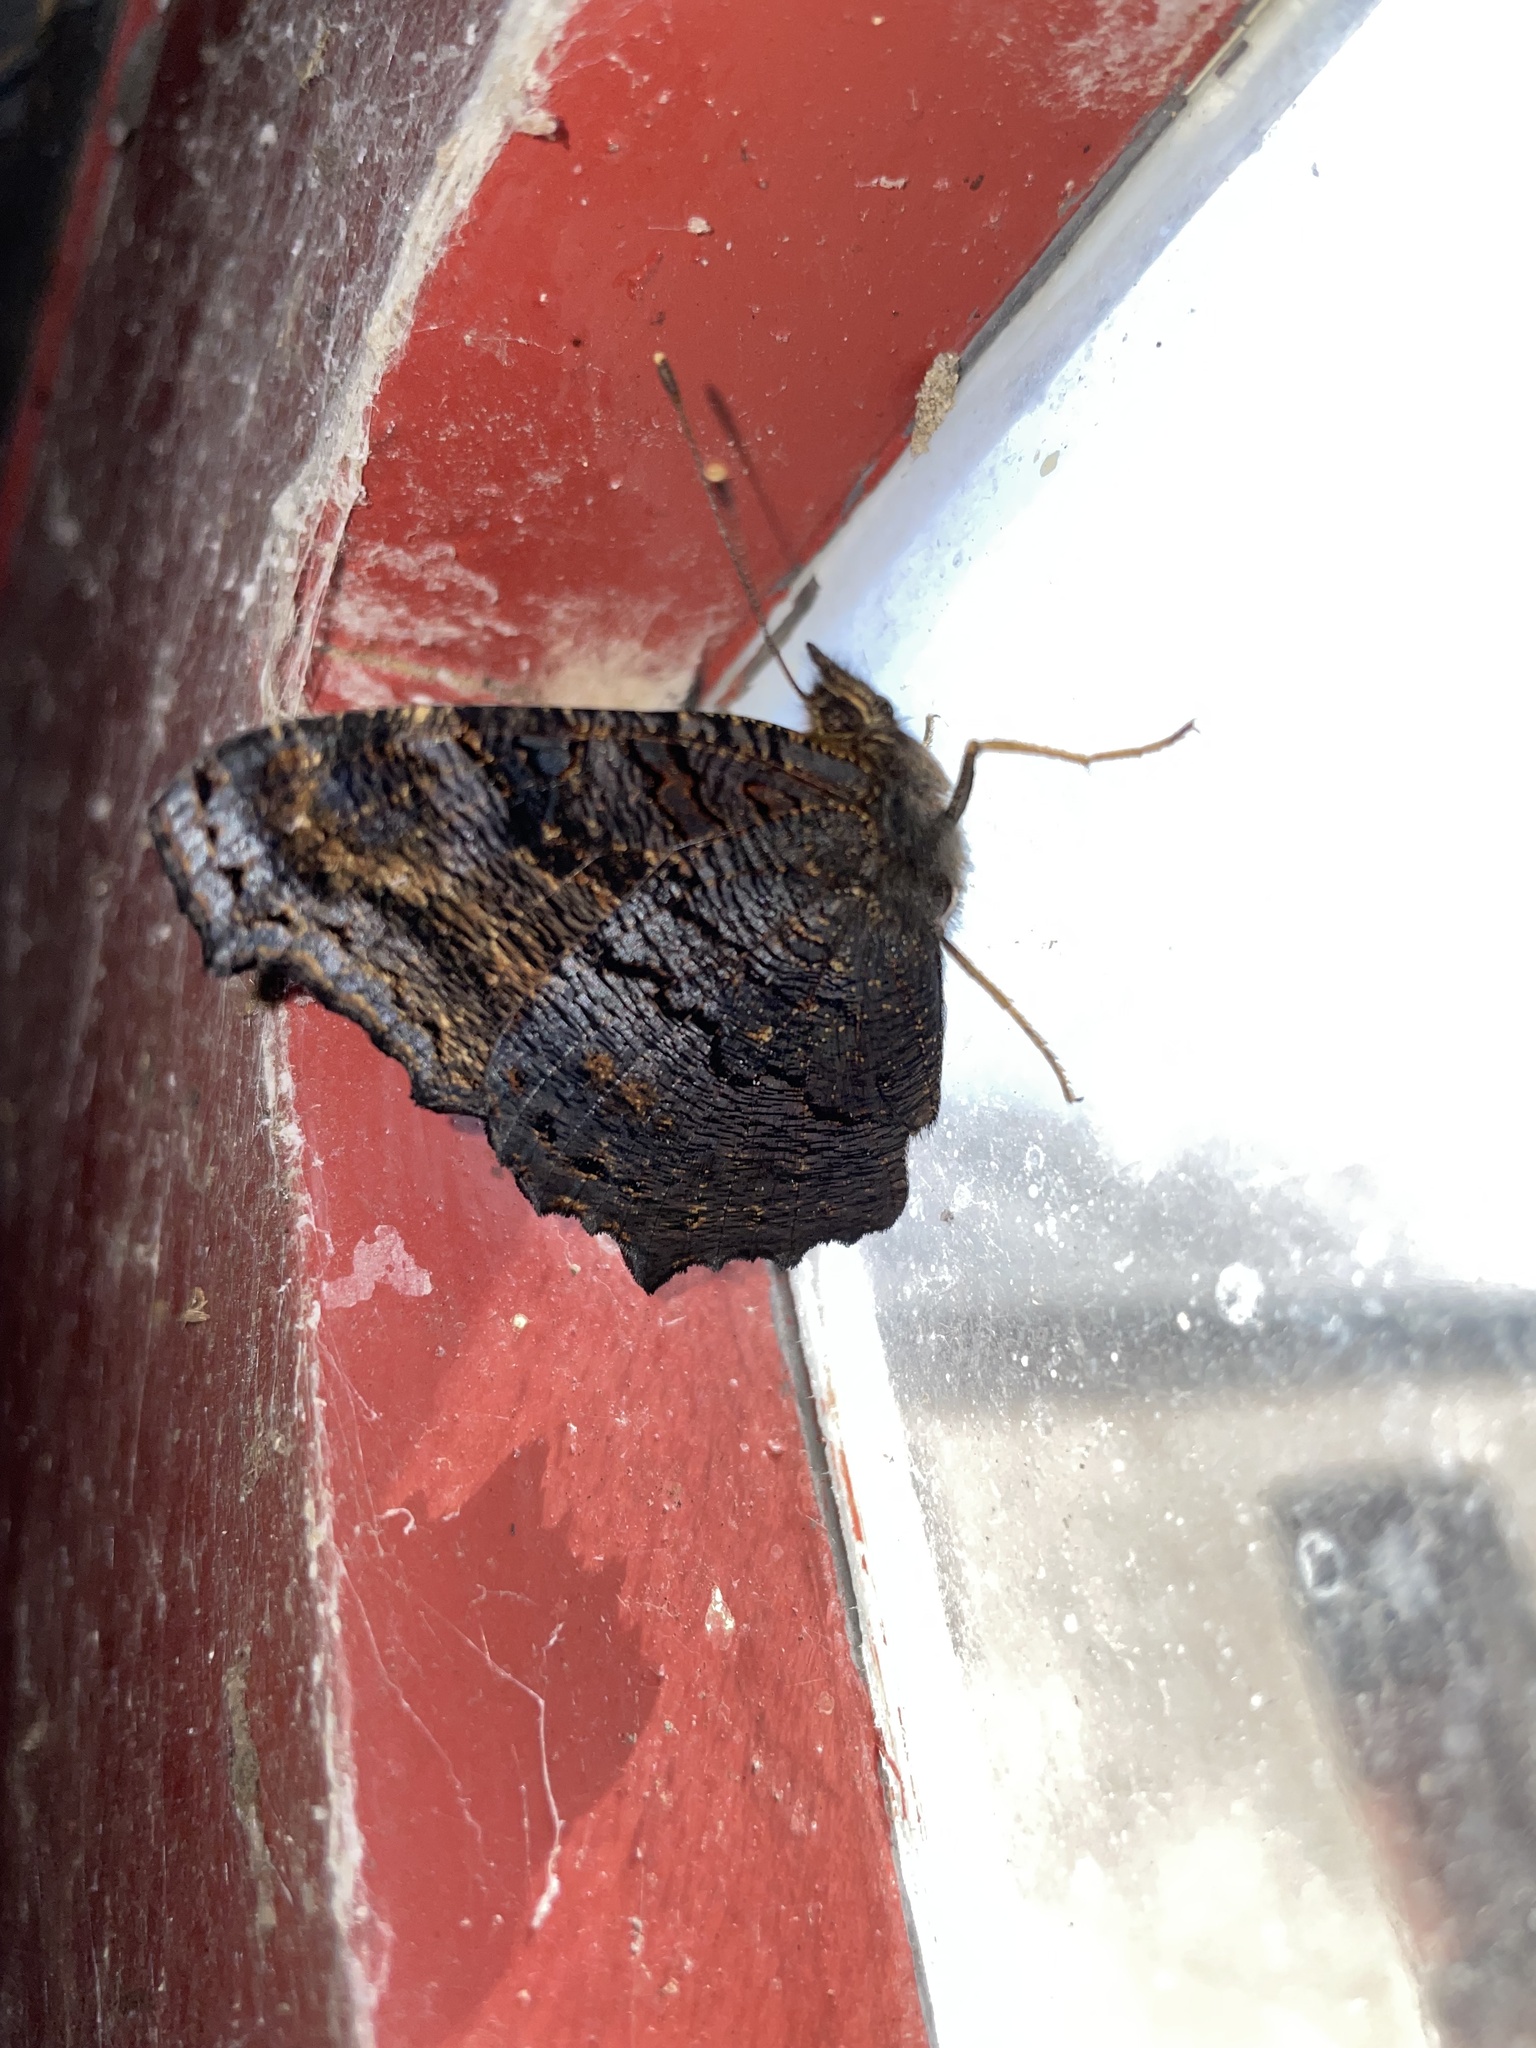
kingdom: Animalia
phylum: Arthropoda
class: Insecta
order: Lepidoptera
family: Nymphalidae
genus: Aglais
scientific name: Aglais io
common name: Peacock
